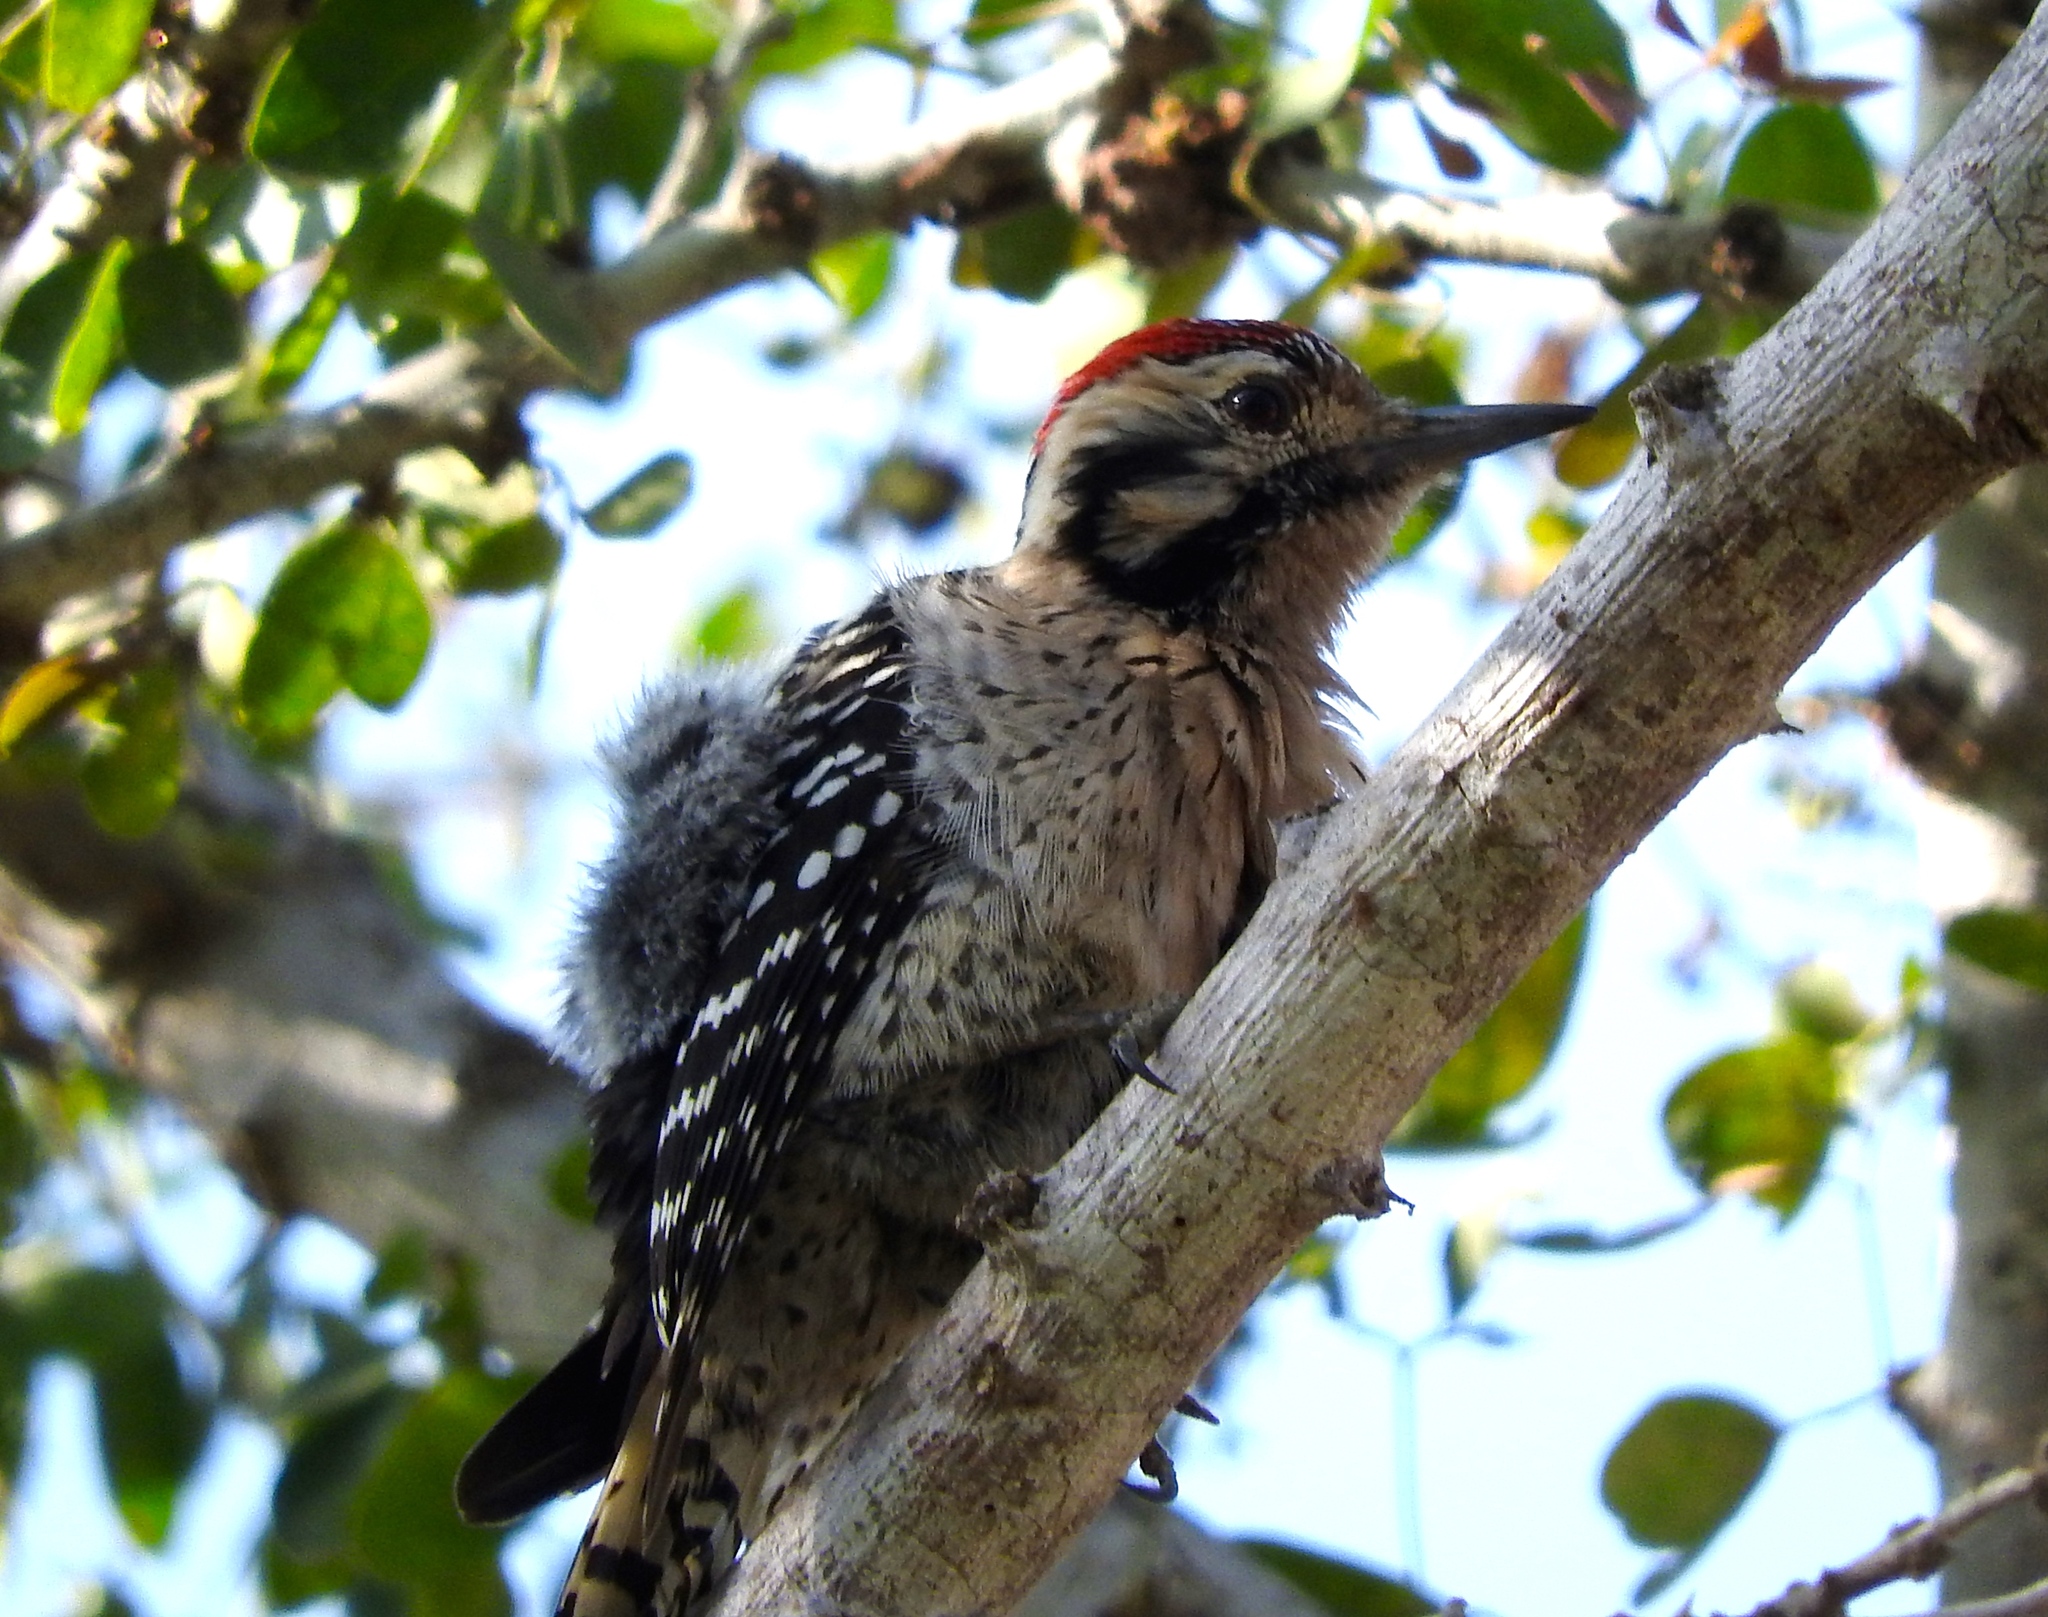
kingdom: Animalia
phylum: Chordata
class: Aves
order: Piciformes
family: Picidae
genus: Dryobates
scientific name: Dryobates scalaris
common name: Ladder-backed woodpecker
